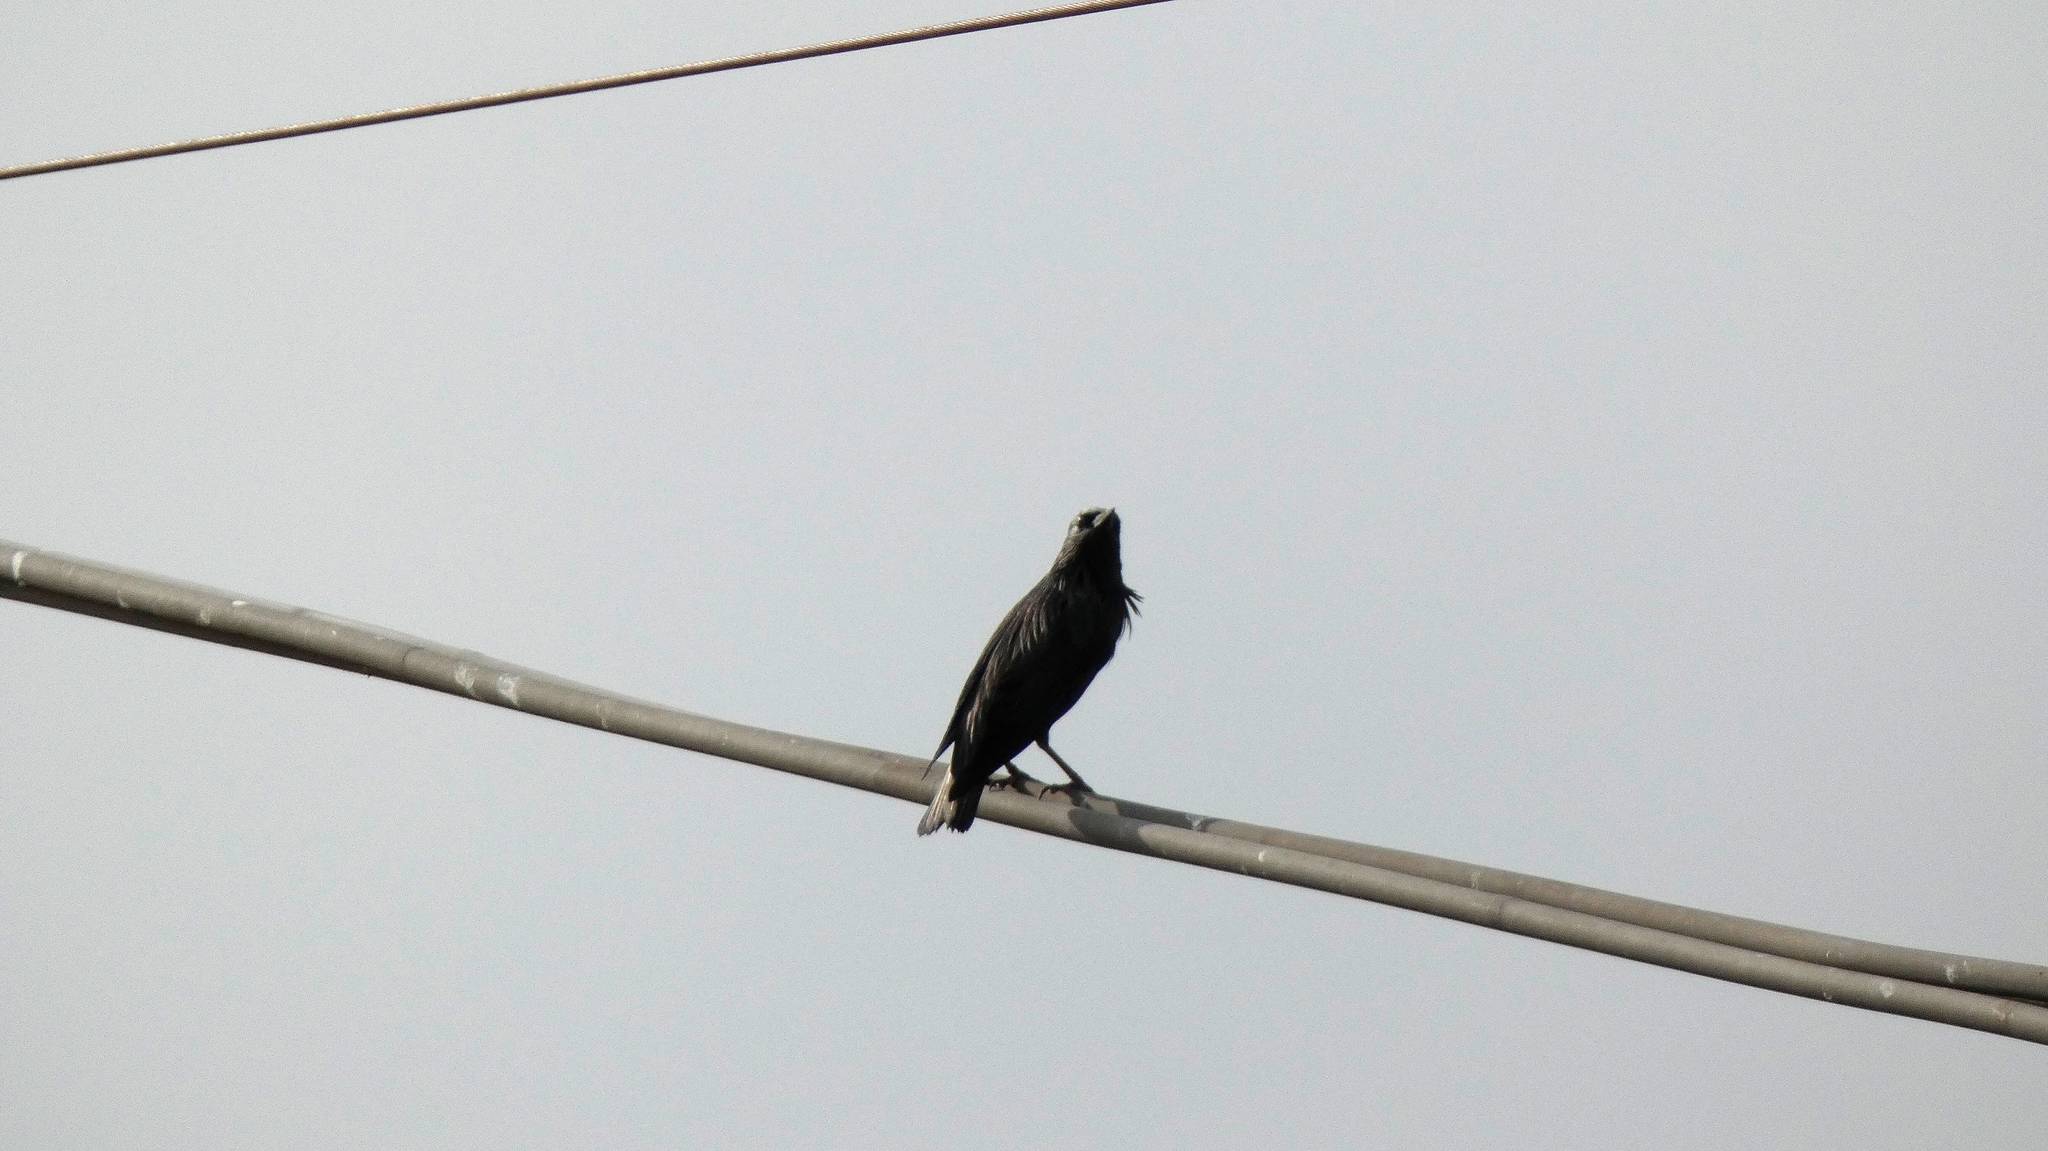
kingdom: Animalia
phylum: Chordata
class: Aves
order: Passeriformes
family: Sturnidae
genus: Sturnus
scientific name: Sturnus unicolor
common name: Spotless starling
